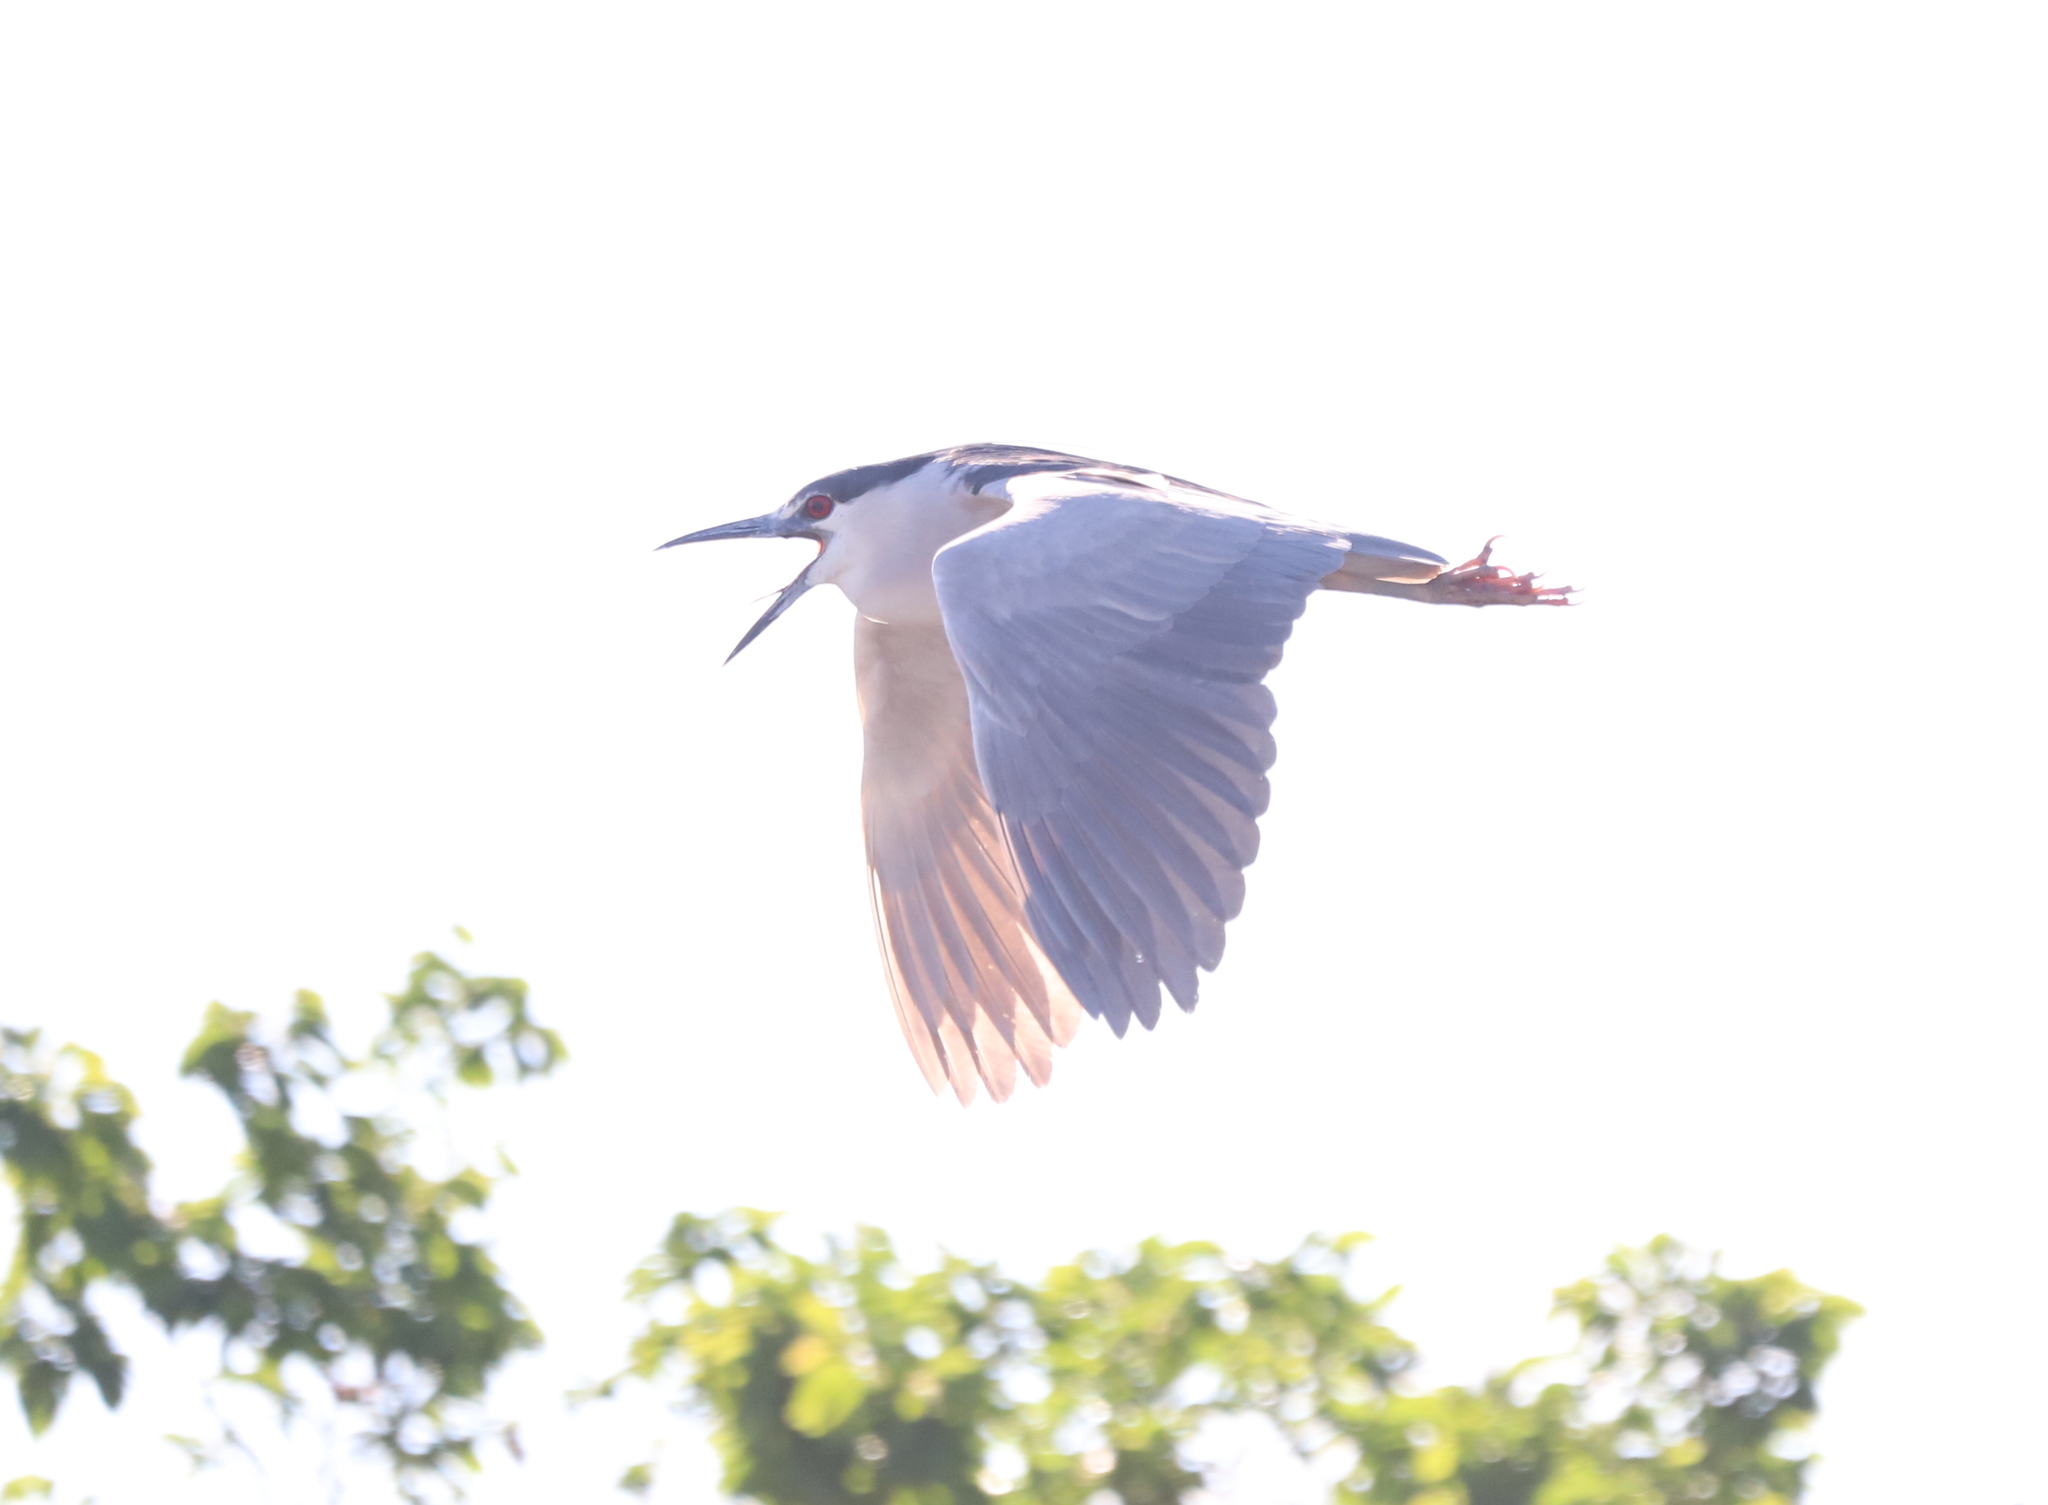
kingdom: Animalia
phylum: Chordata
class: Aves
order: Pelecaniformes
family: Ardeidae
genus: Nycticorax
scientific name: Nycticorax nycticorax
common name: Black-crowned night heron
